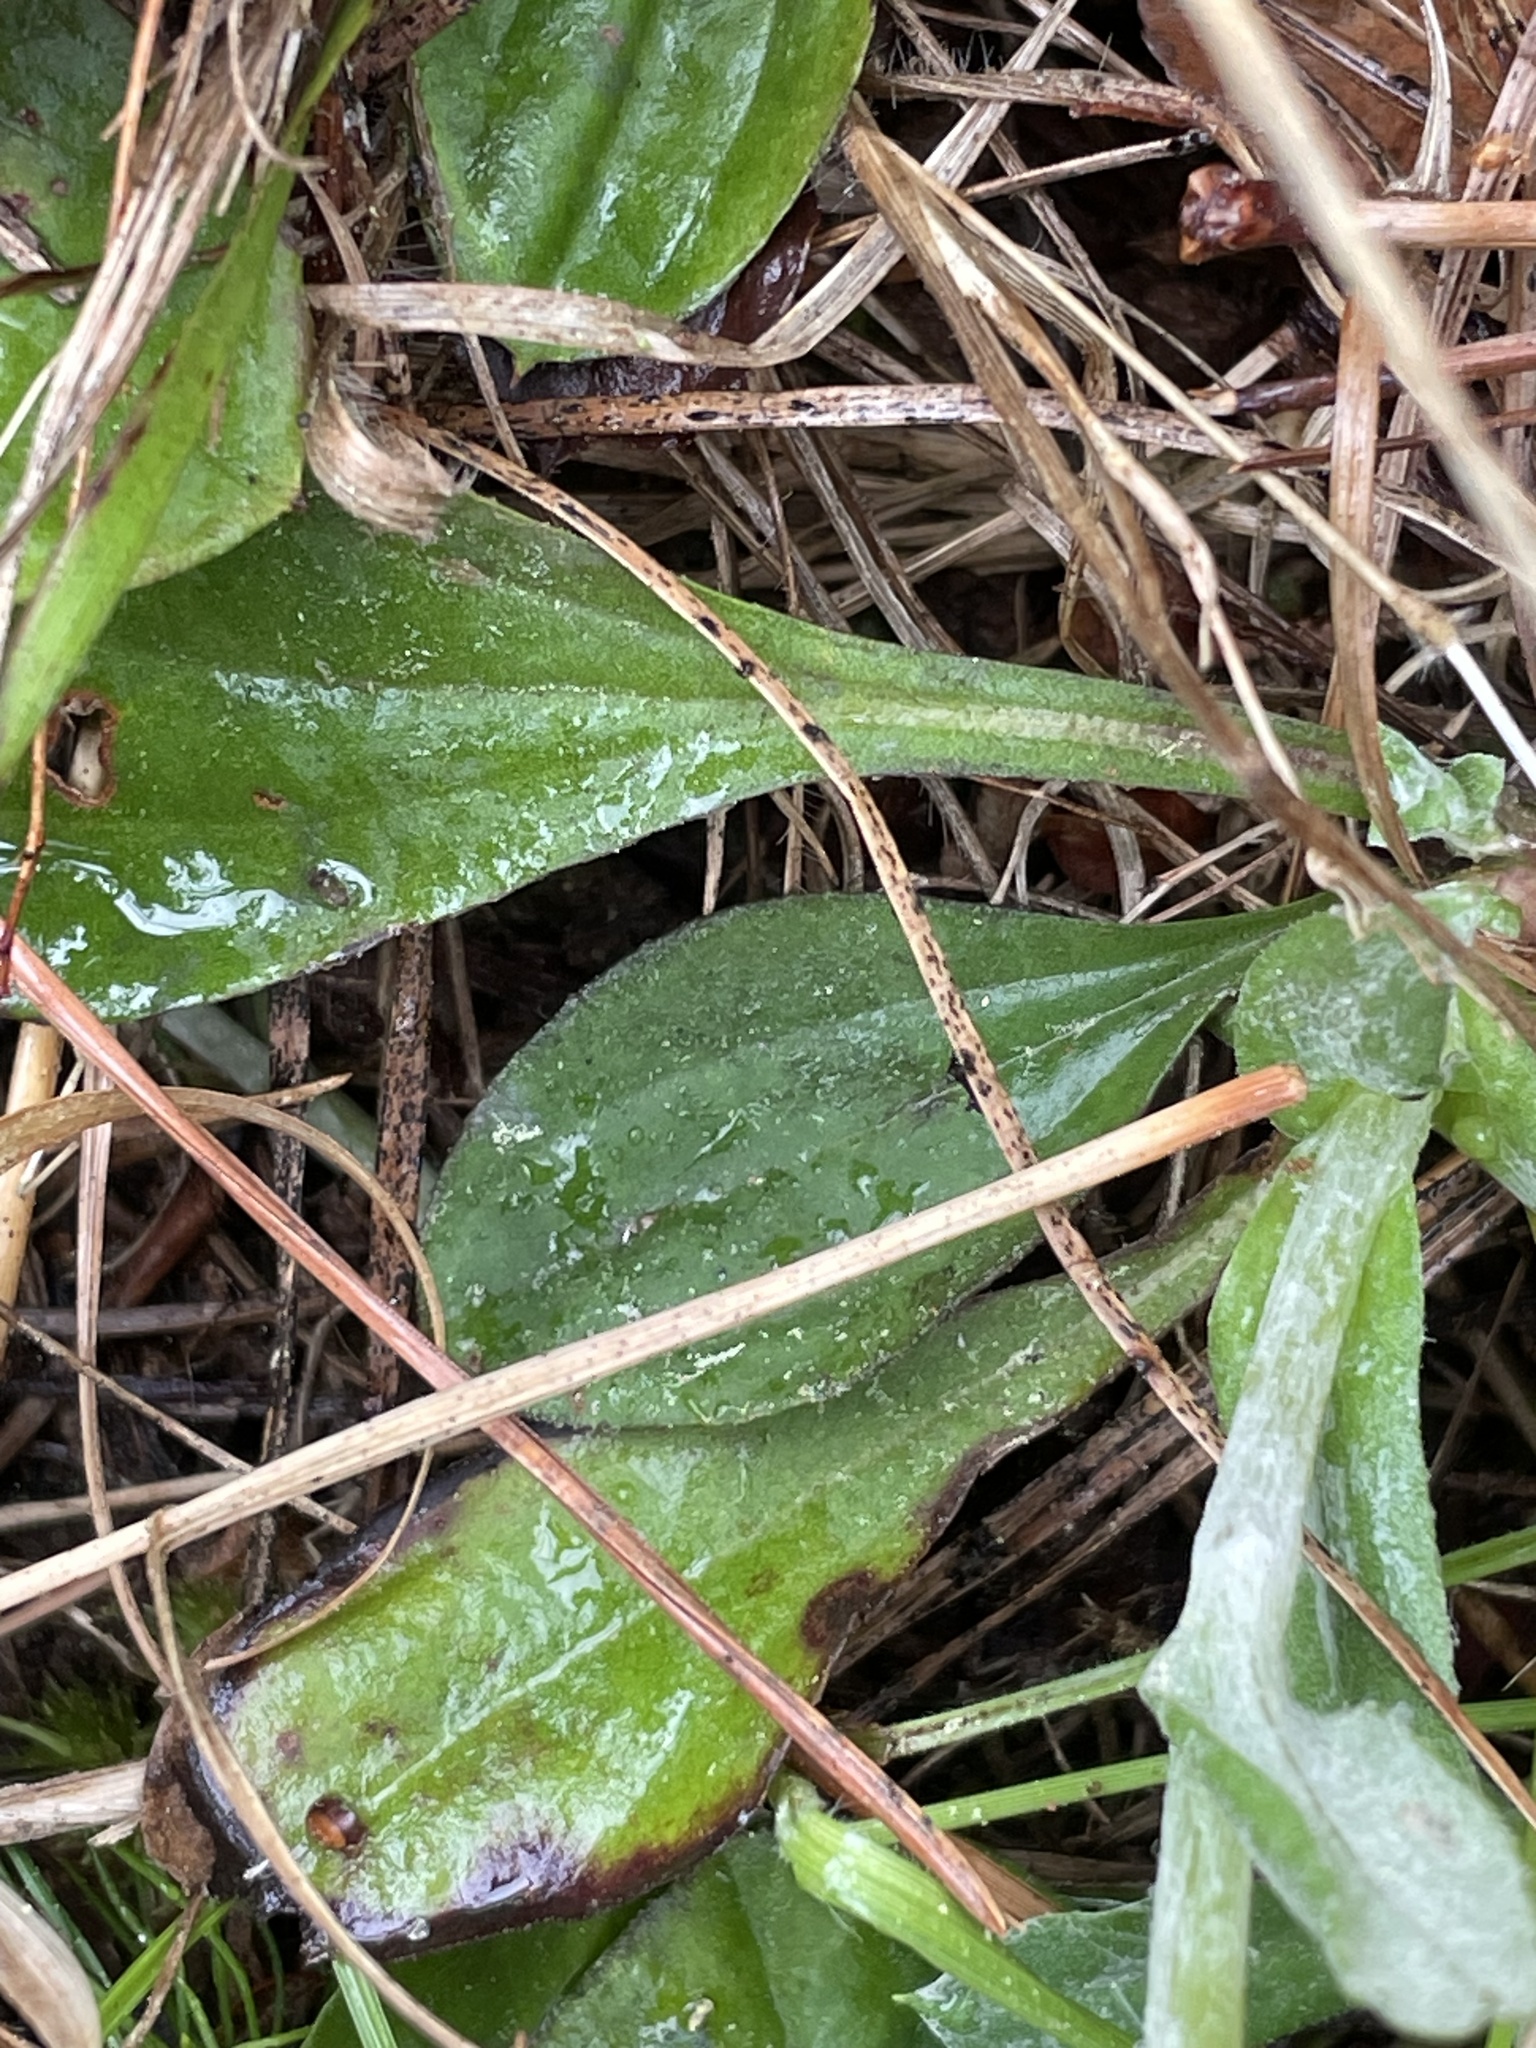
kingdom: Plantae
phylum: Tracheophyta
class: Magnoliopsida
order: Asterales
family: Asteraceae
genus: Antennaria
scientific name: Antennaria parlinii
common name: Parlin's pussytoes
